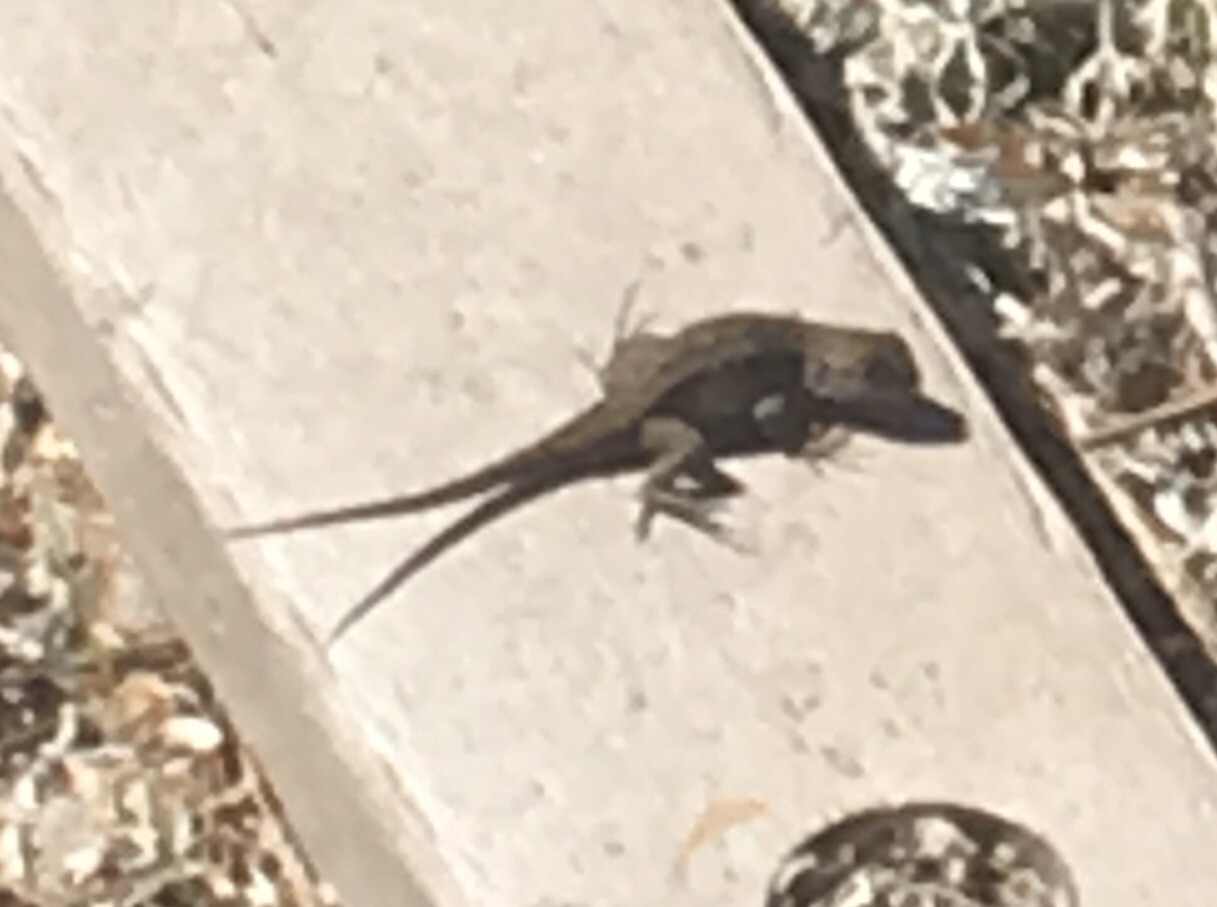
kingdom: Animalia
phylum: Chordata
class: Squamata
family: Phrynosomatidae
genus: Sceloporus
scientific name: Sceloporus occidentalis
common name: Western fence lizard
